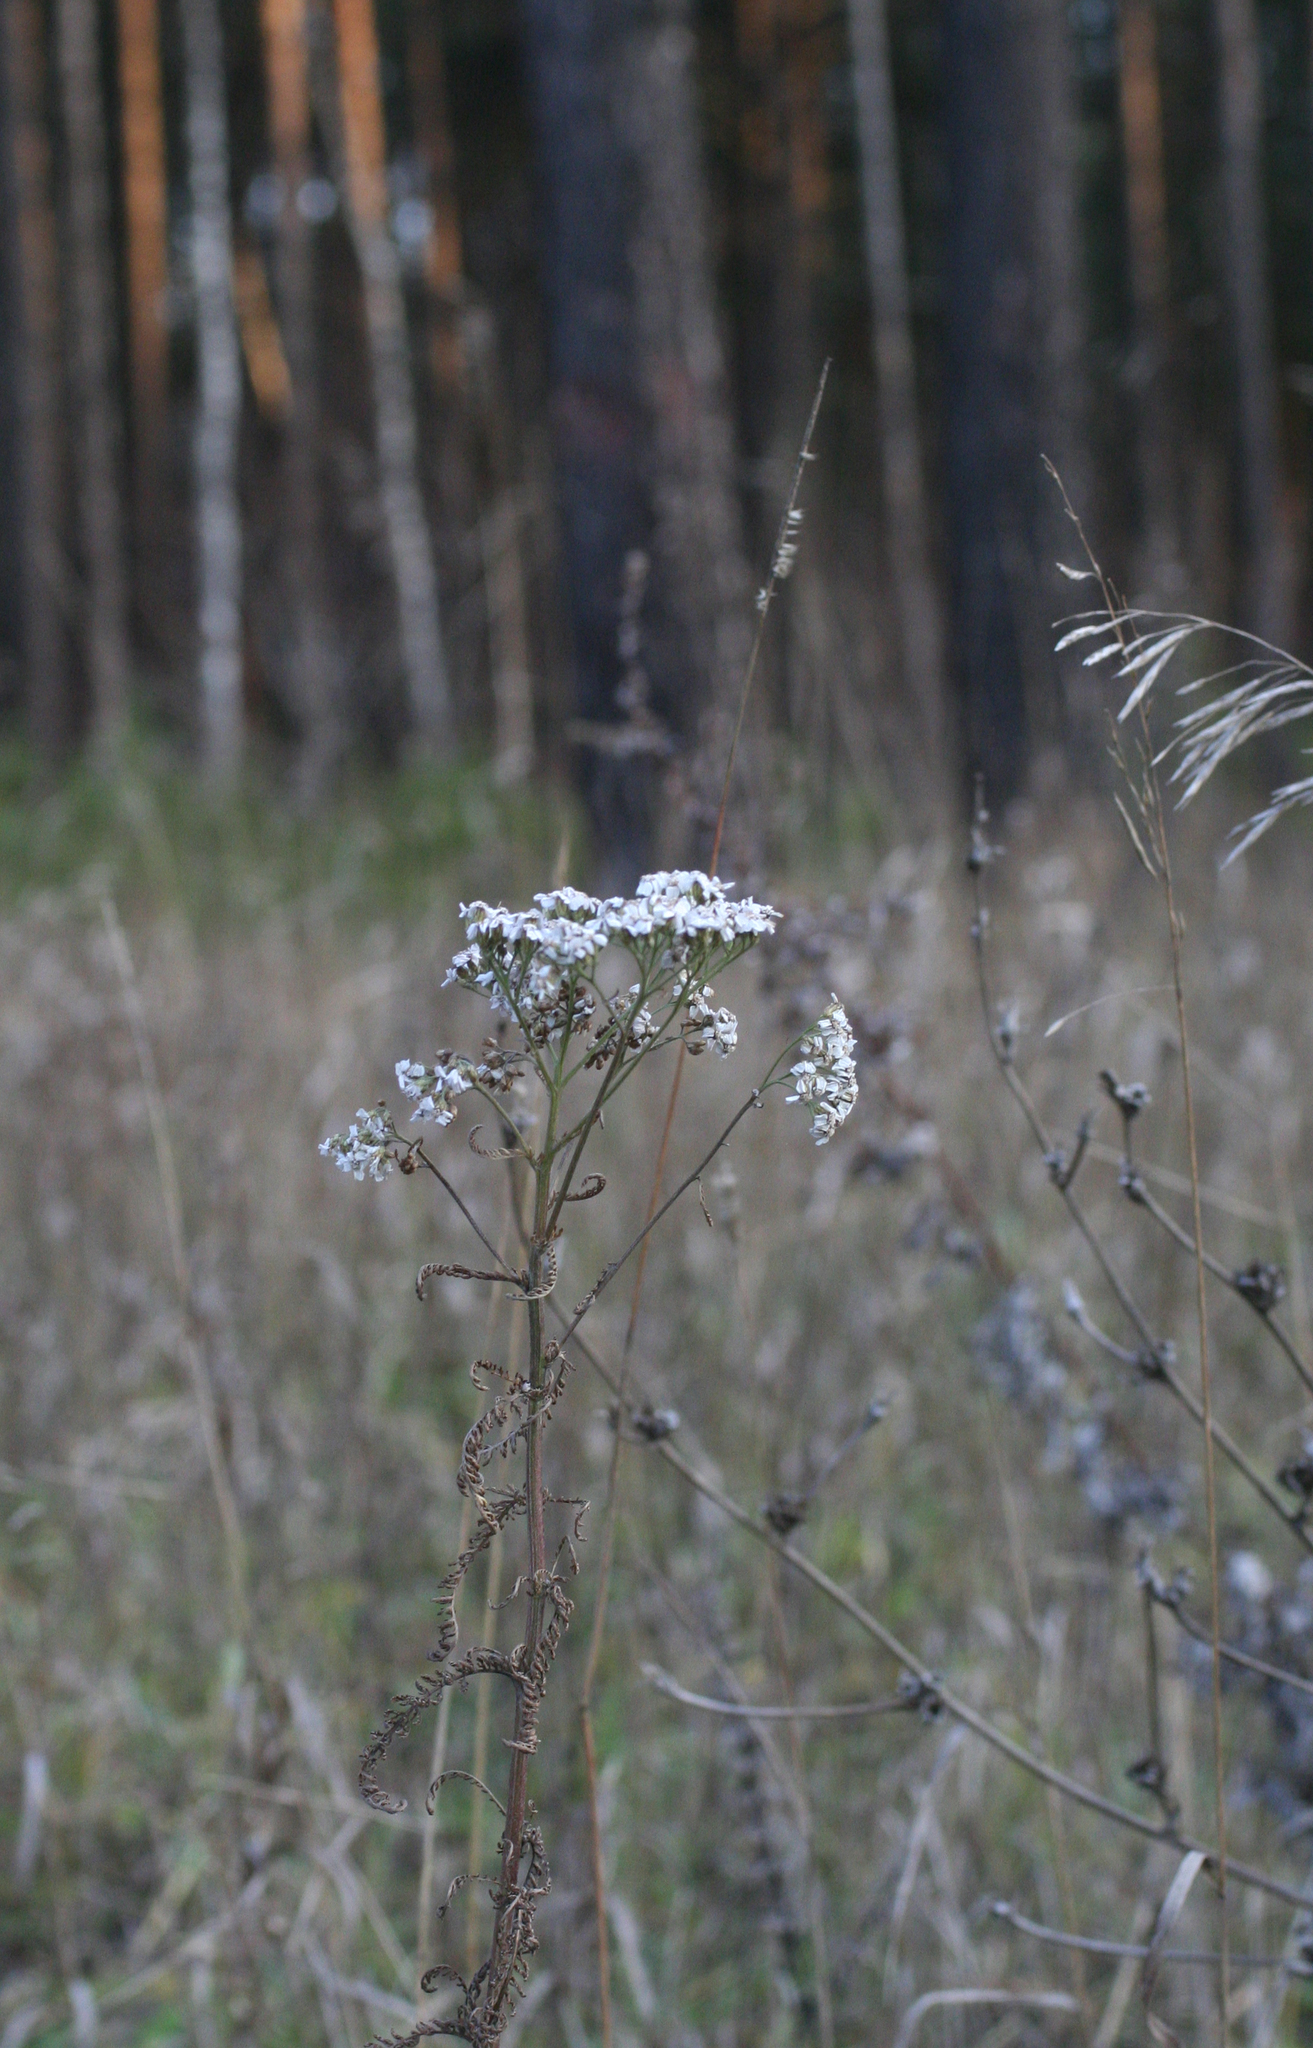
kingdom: Plantae
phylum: Tracheophyta
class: Magnoliopsida
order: Asterales
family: Asteraceae
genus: Achillea
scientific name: Achillea millefolium
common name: Yarrow
